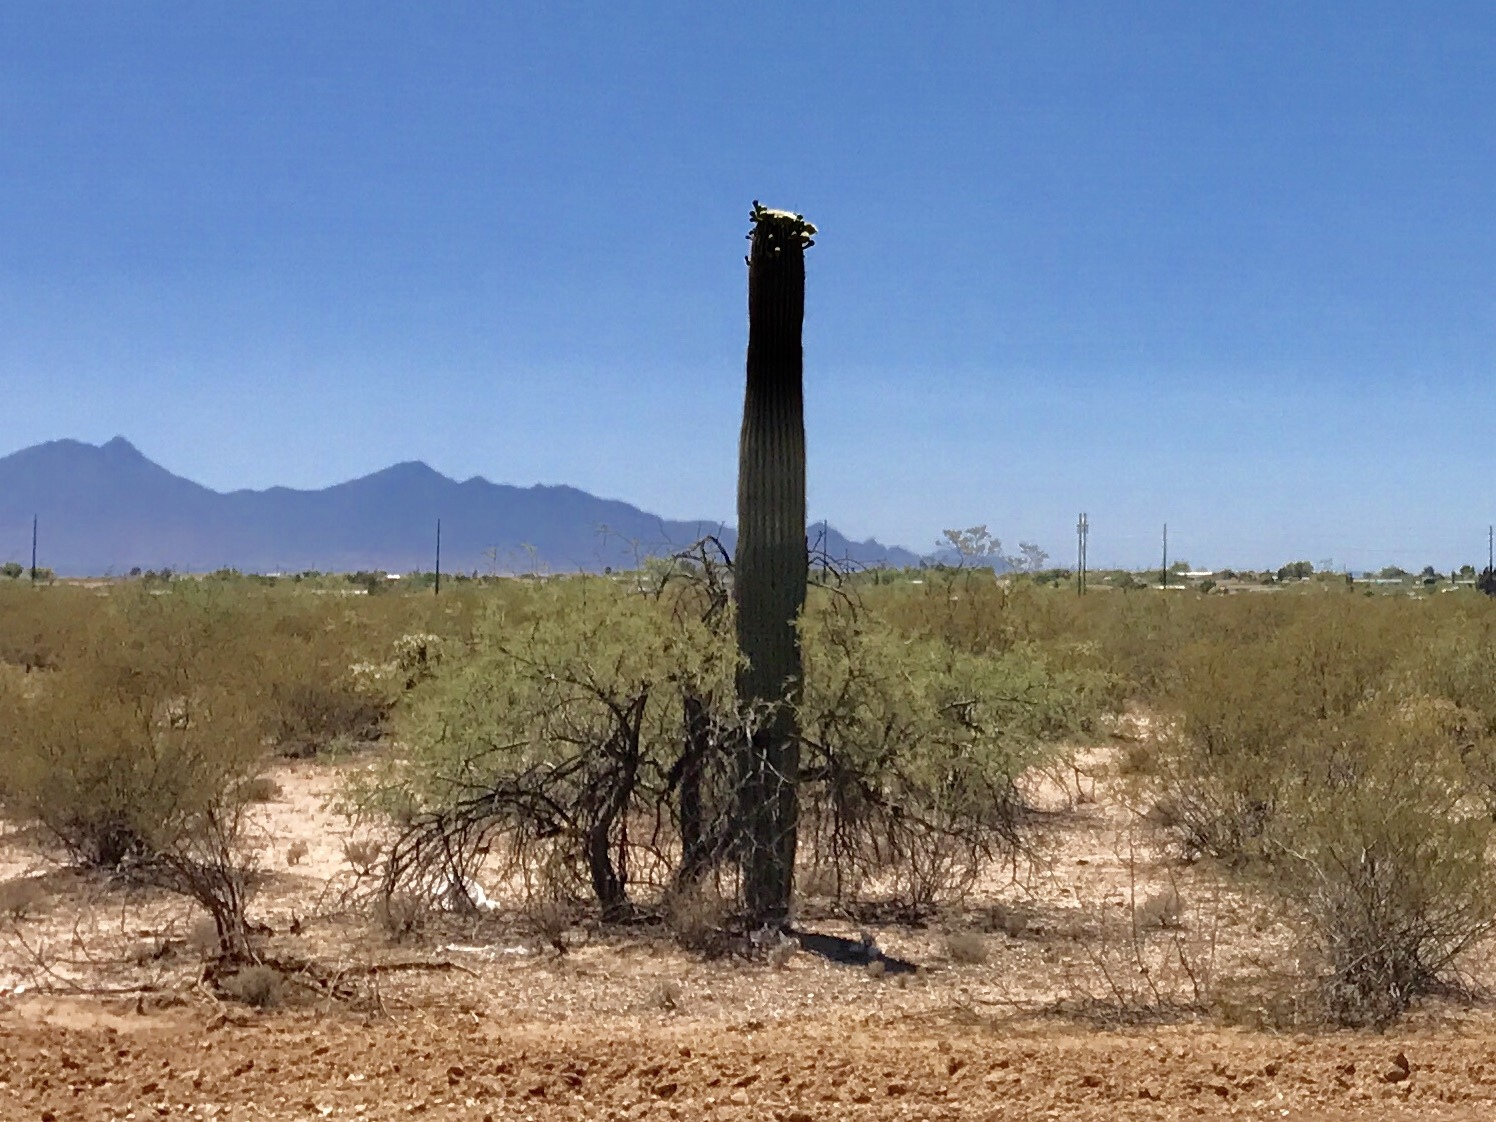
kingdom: Plantae
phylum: Tracheophyta
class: Magnoliopsida
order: Caryophyllales
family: Cactaceae
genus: Carnegiea
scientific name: Carnegiea gigantea
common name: Saguaro
